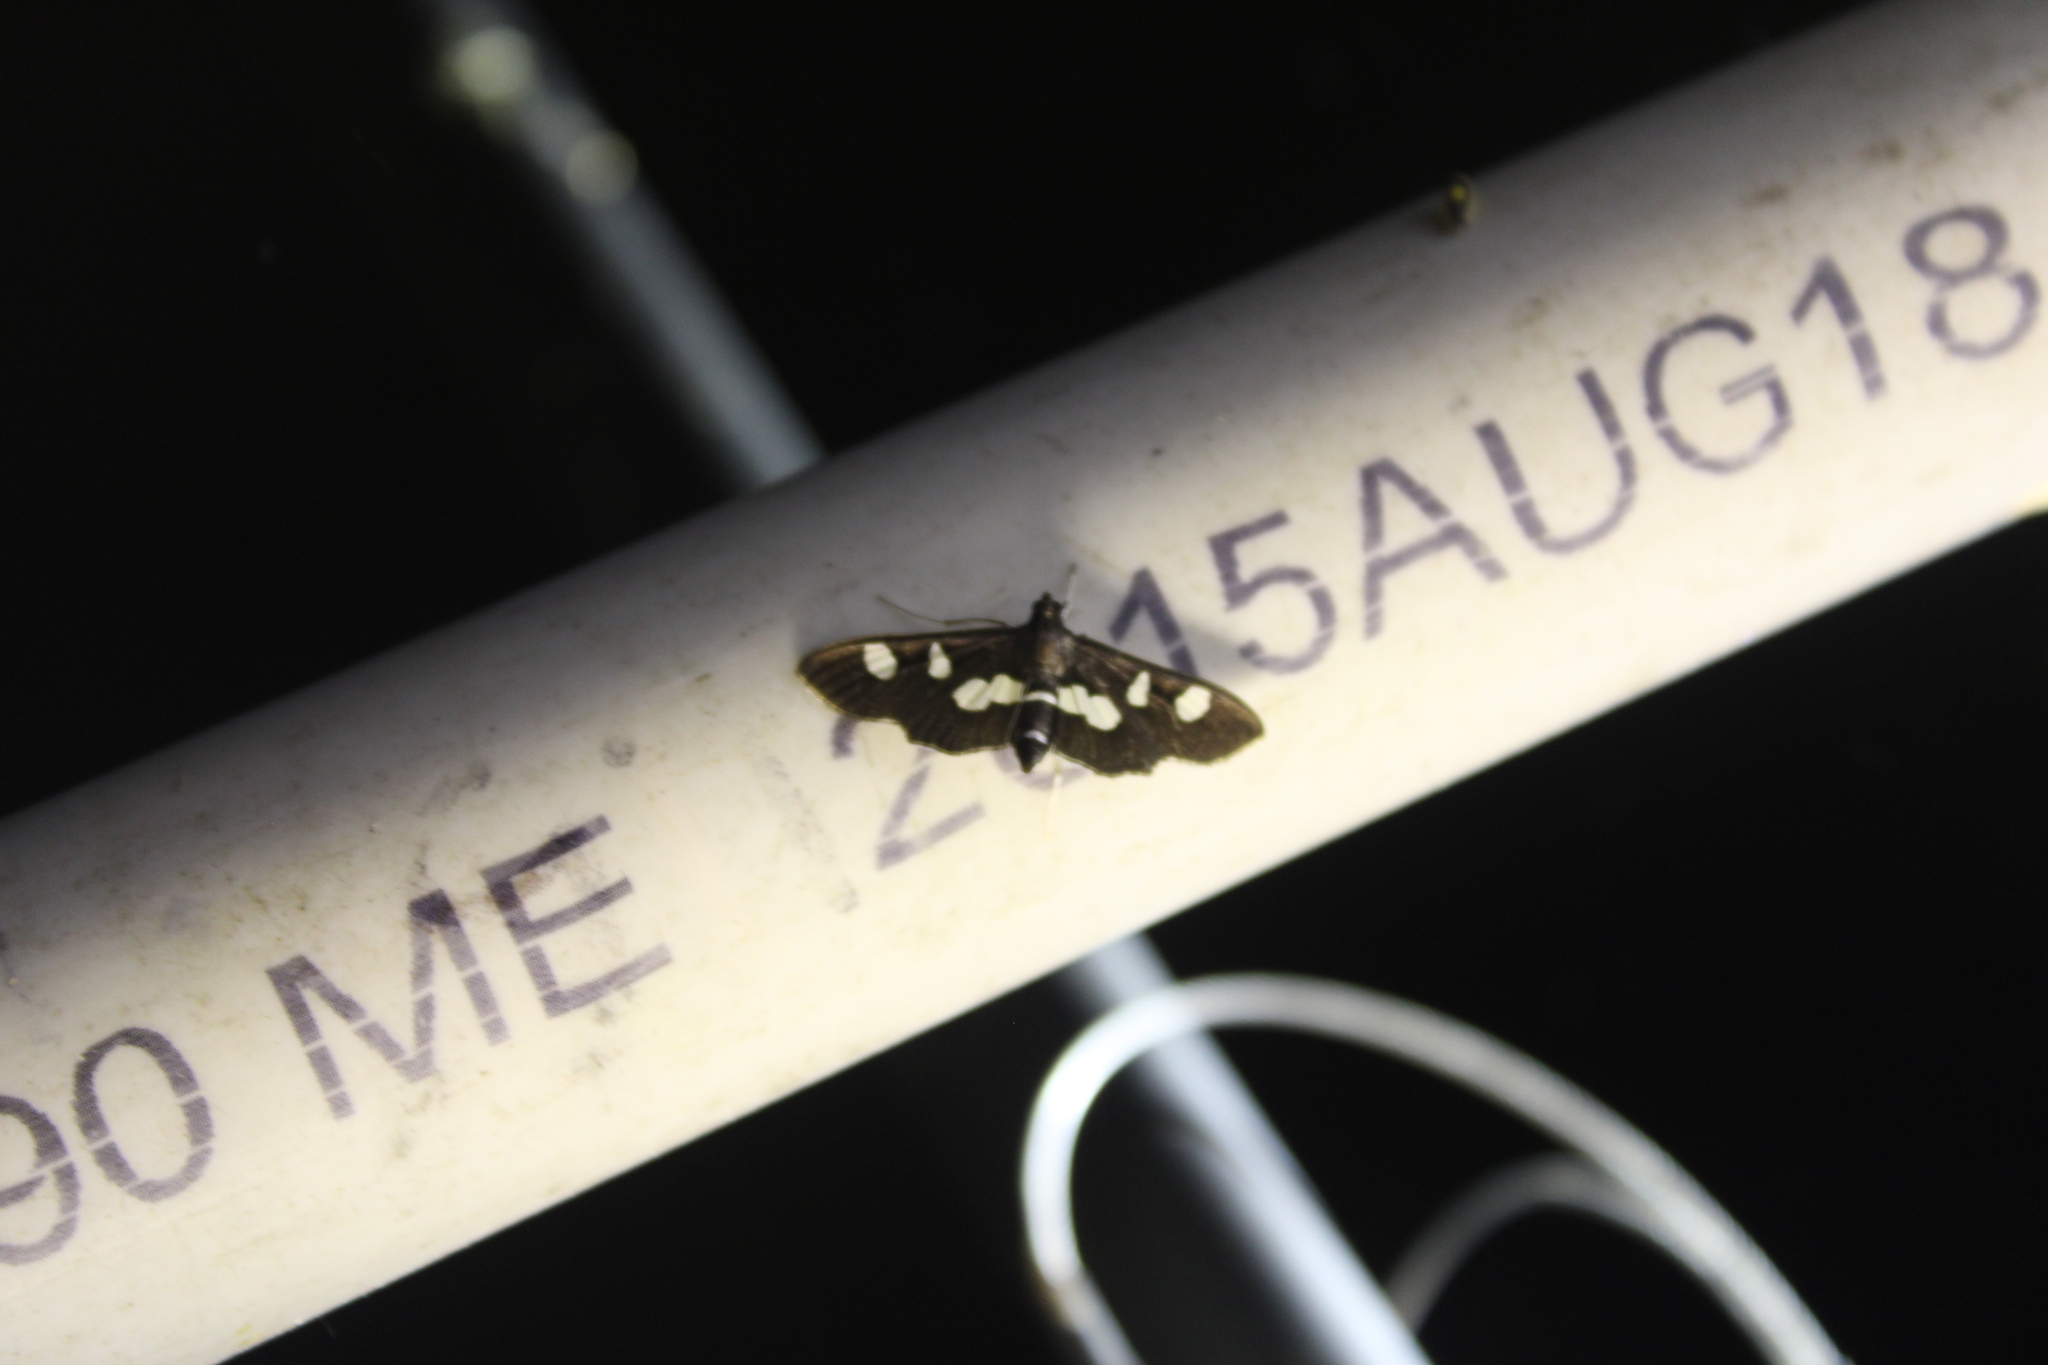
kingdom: Animalia
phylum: Arthropoda
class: Insecta
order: Lepidoptera
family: Crambidae
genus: Desmia
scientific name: Desmia
